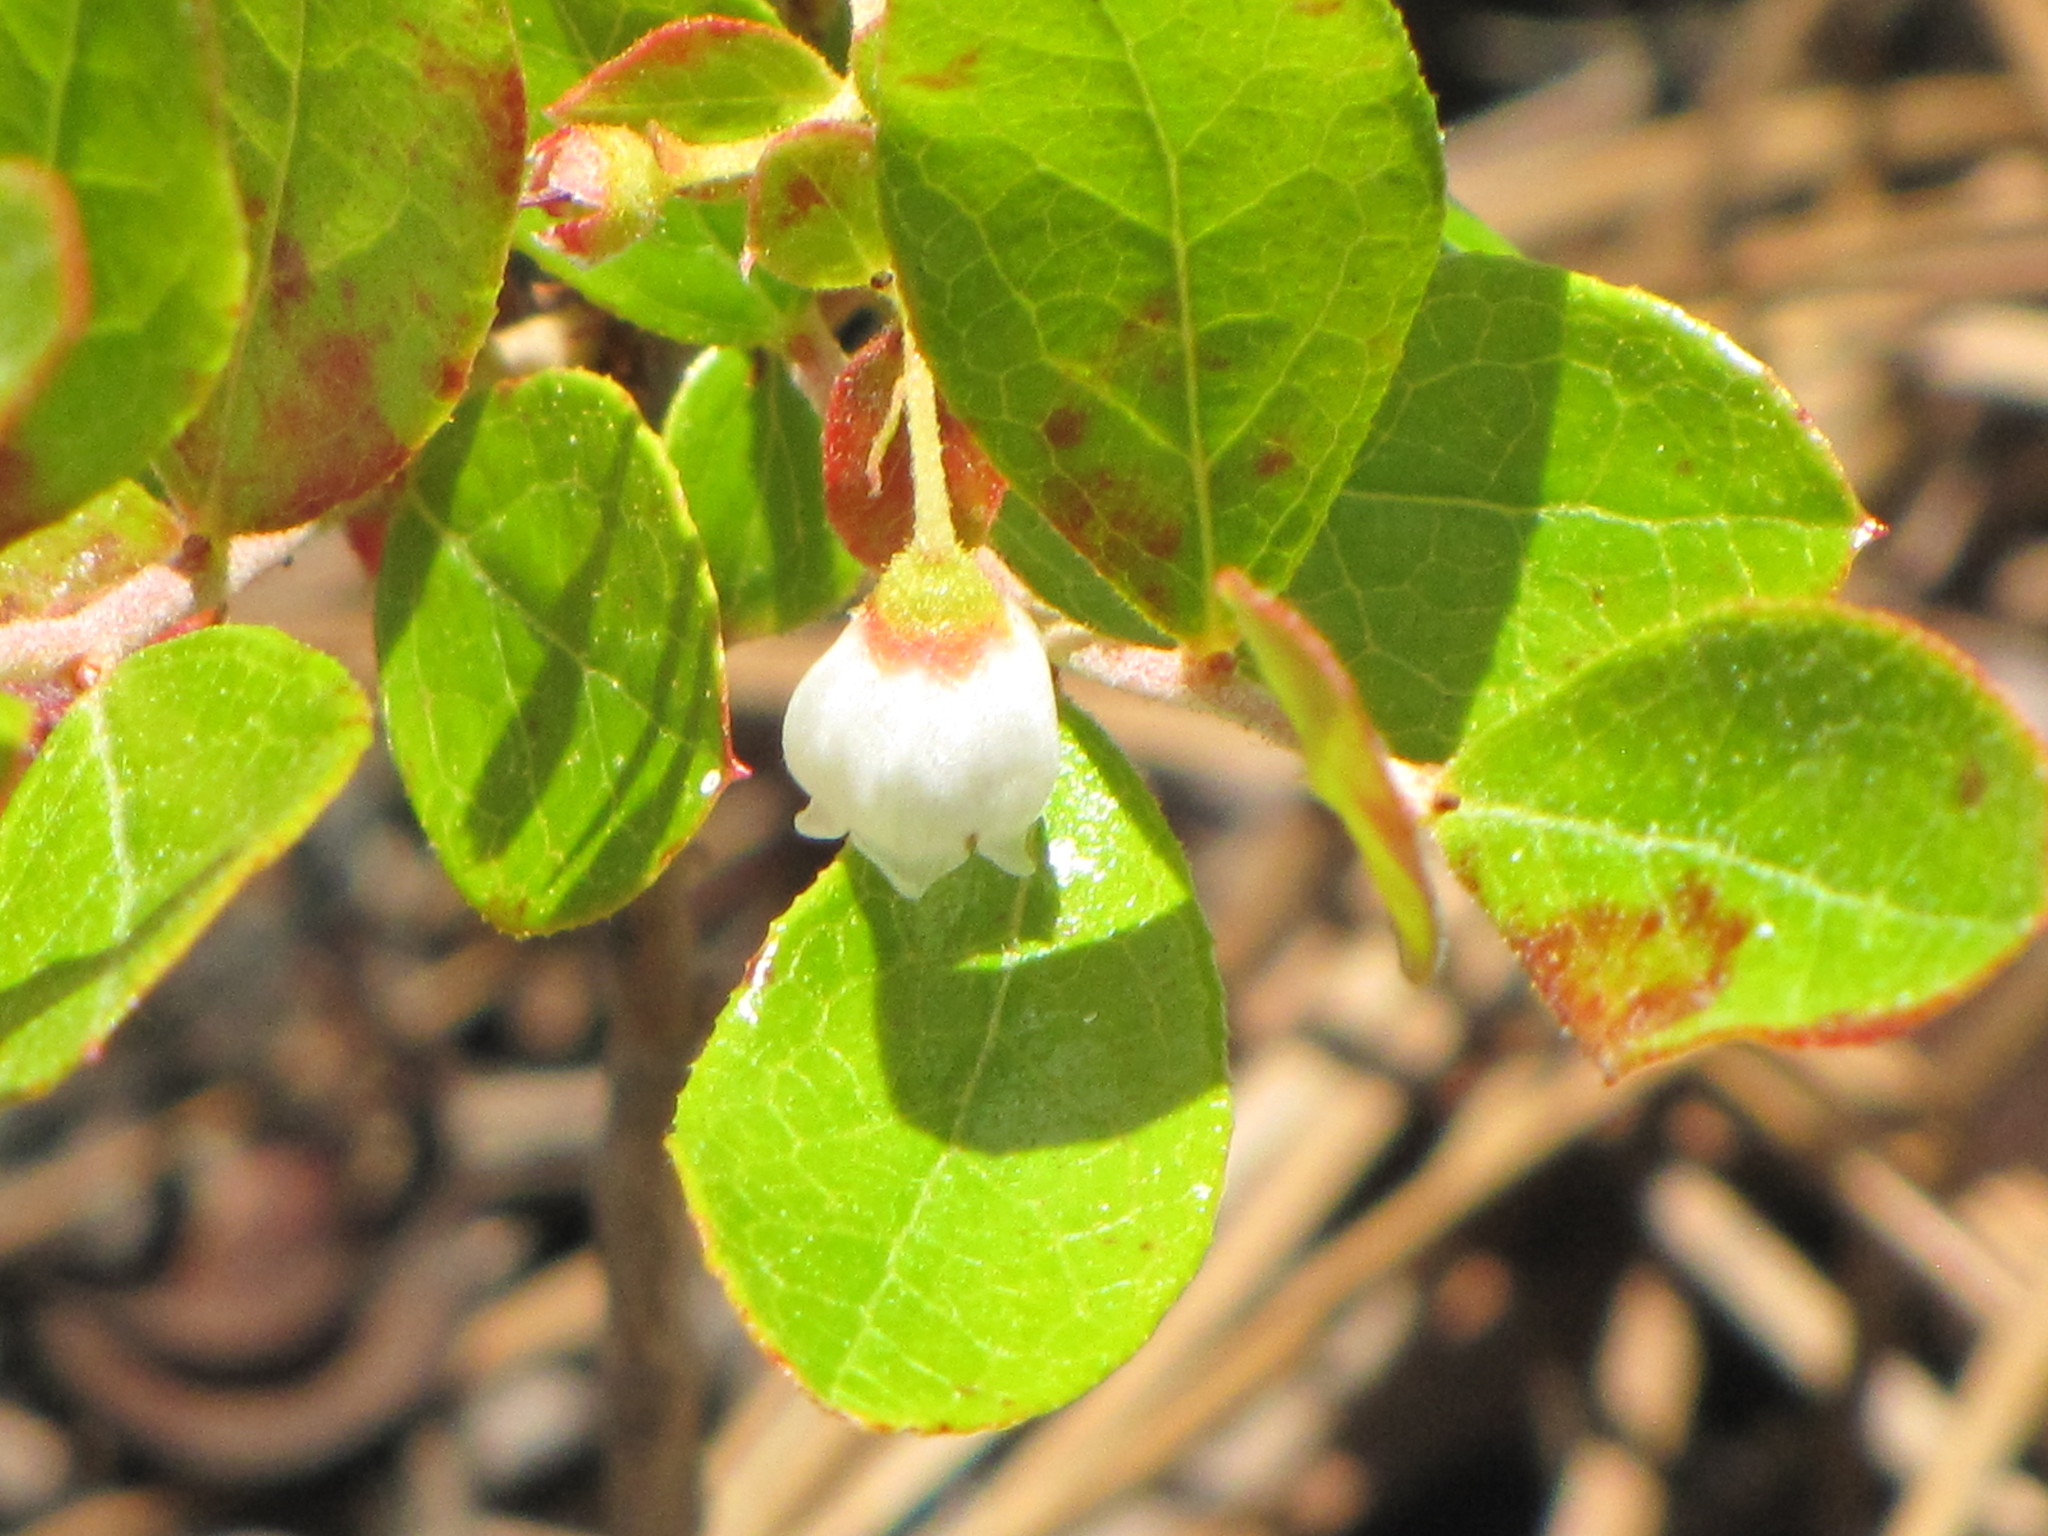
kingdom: Plantae
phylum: Tracheophyta
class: Magnoliopsida
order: Ericales
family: Ericaceae
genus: Gaylussacia
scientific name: Gaylussacia dumosa
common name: Dwarf huckleberry
